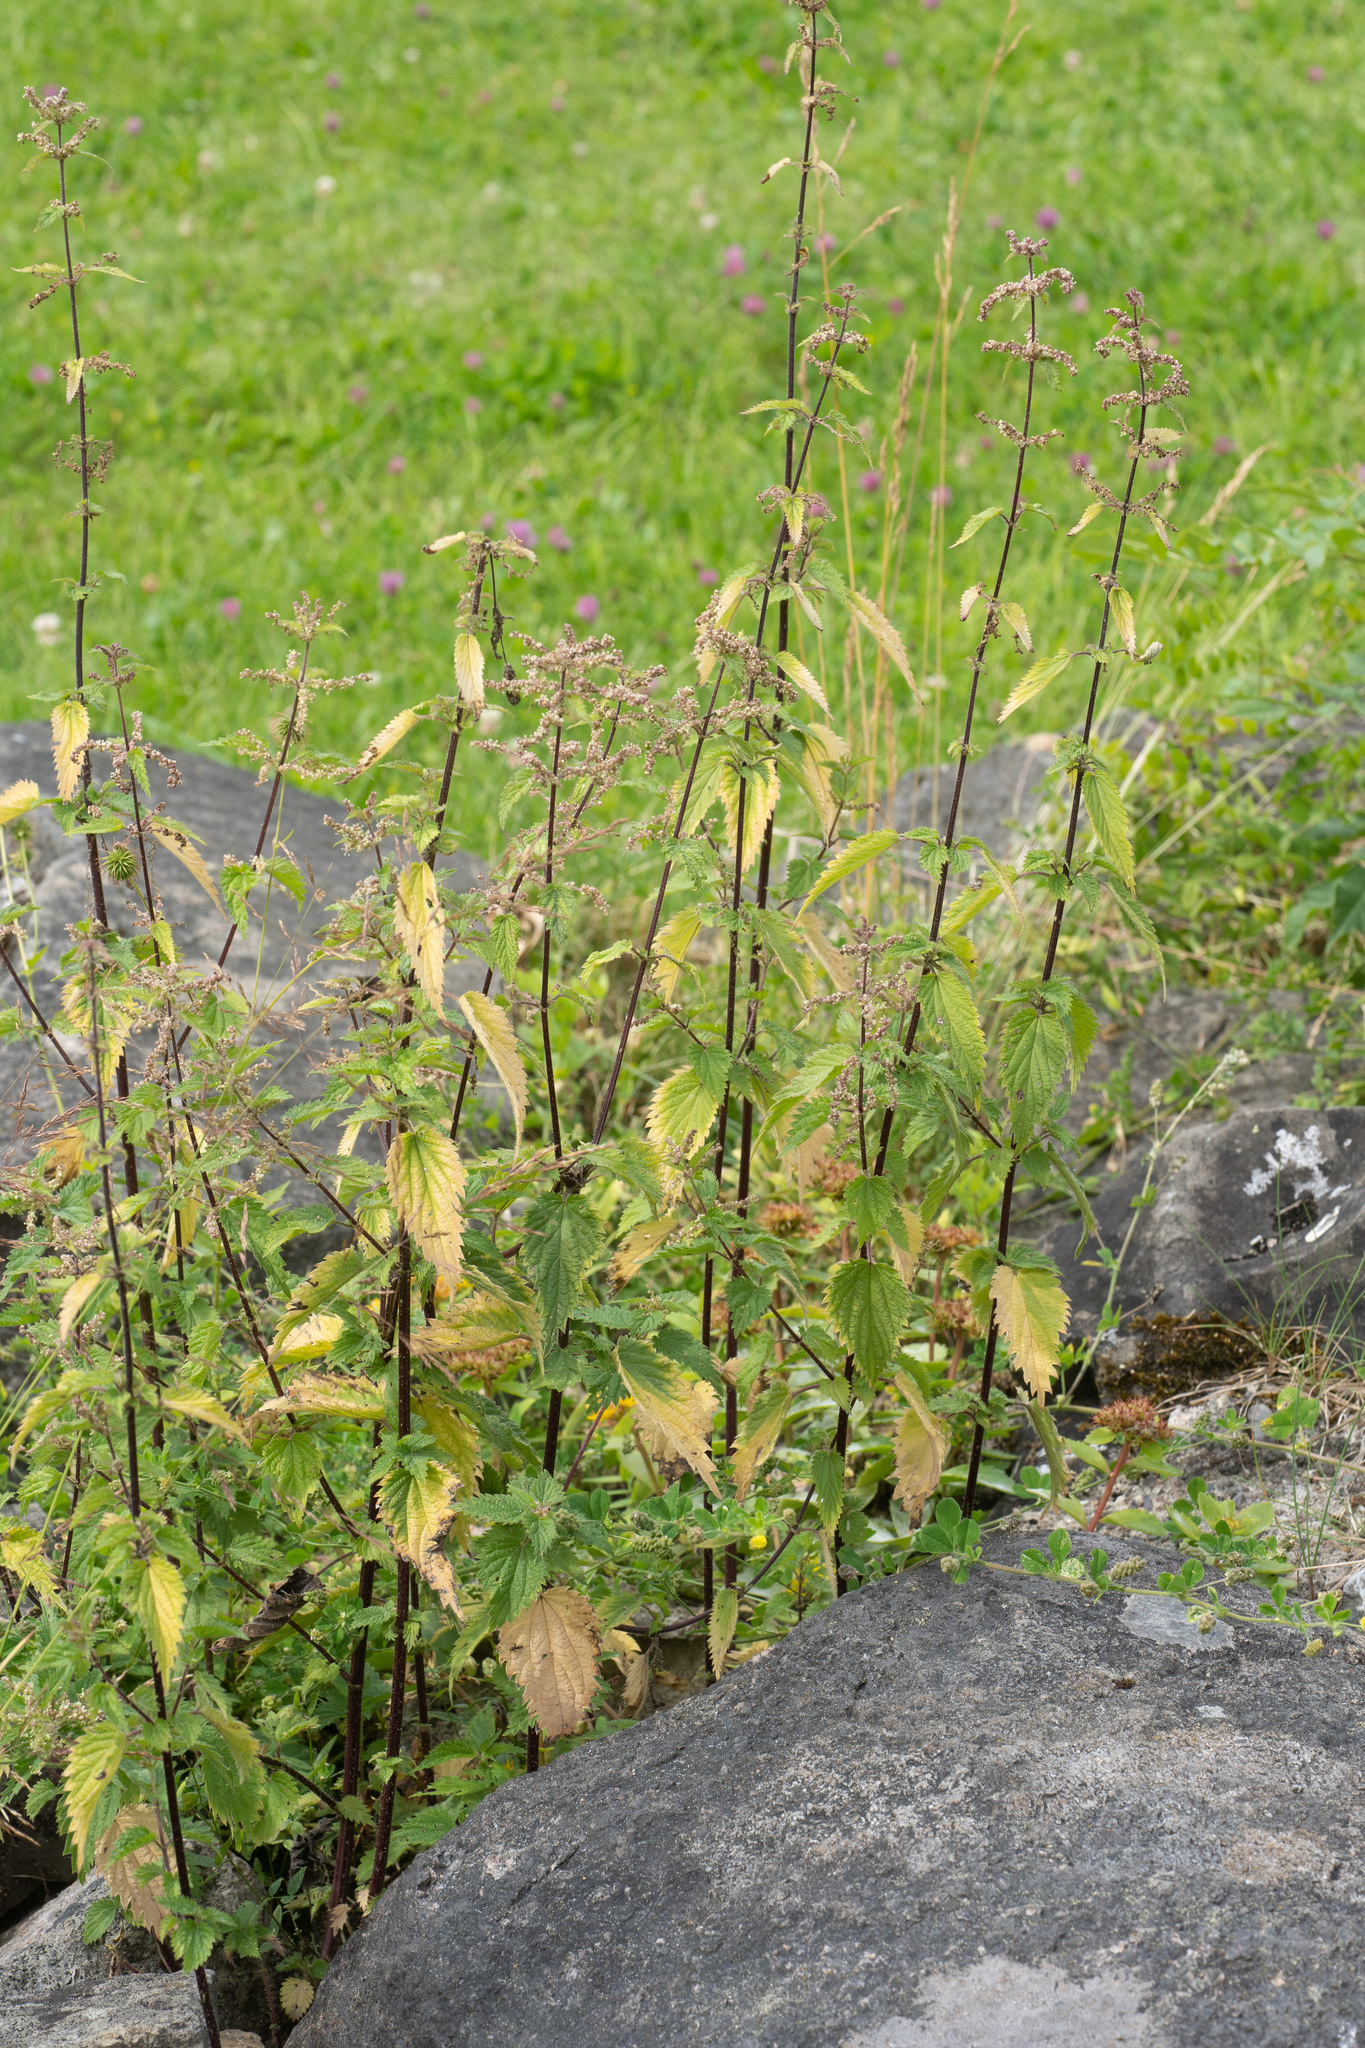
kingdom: Plantae
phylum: Tracheophyta
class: Magnoliopsida
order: Rosales
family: Urticaceae
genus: Urtica
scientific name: Urtica dioica
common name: Common nettle
